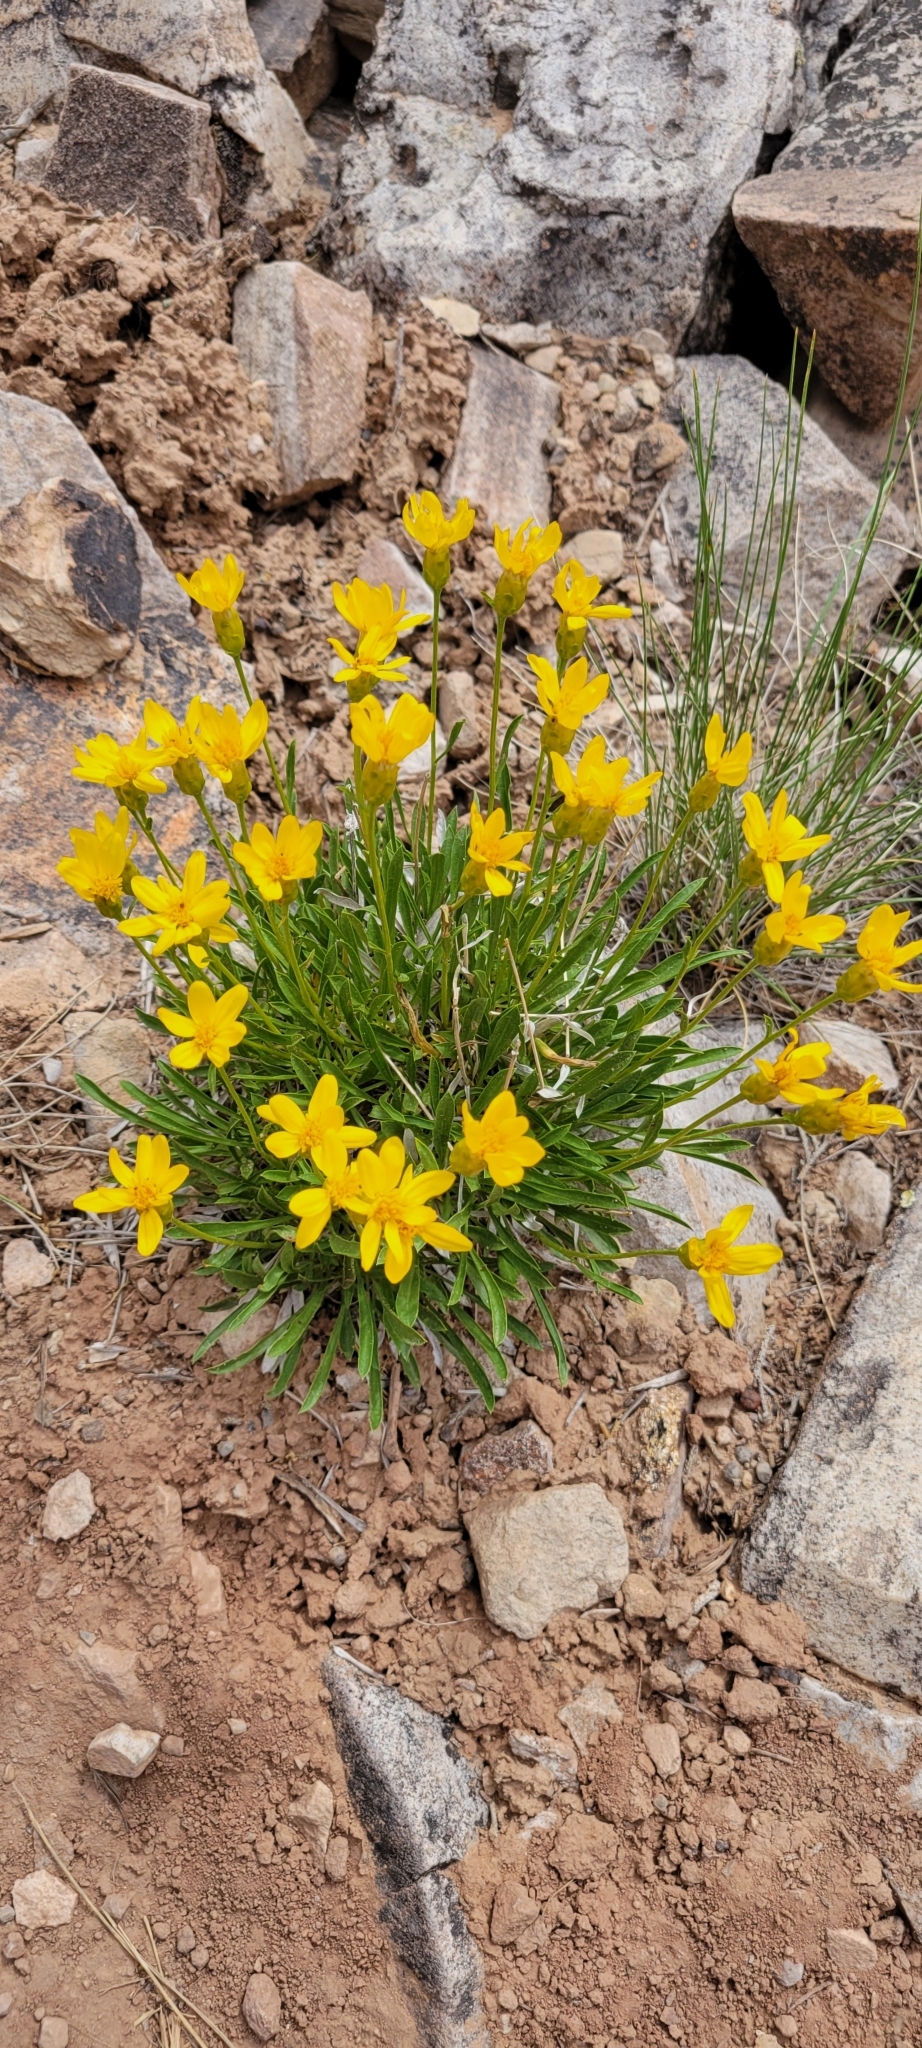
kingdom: Plantae
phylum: Tracheophyta
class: Magnoliopsida
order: Asterales
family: Asteraceae
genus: Stenotus
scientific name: Stenotus armerioides
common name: Thrifty goldenweed
